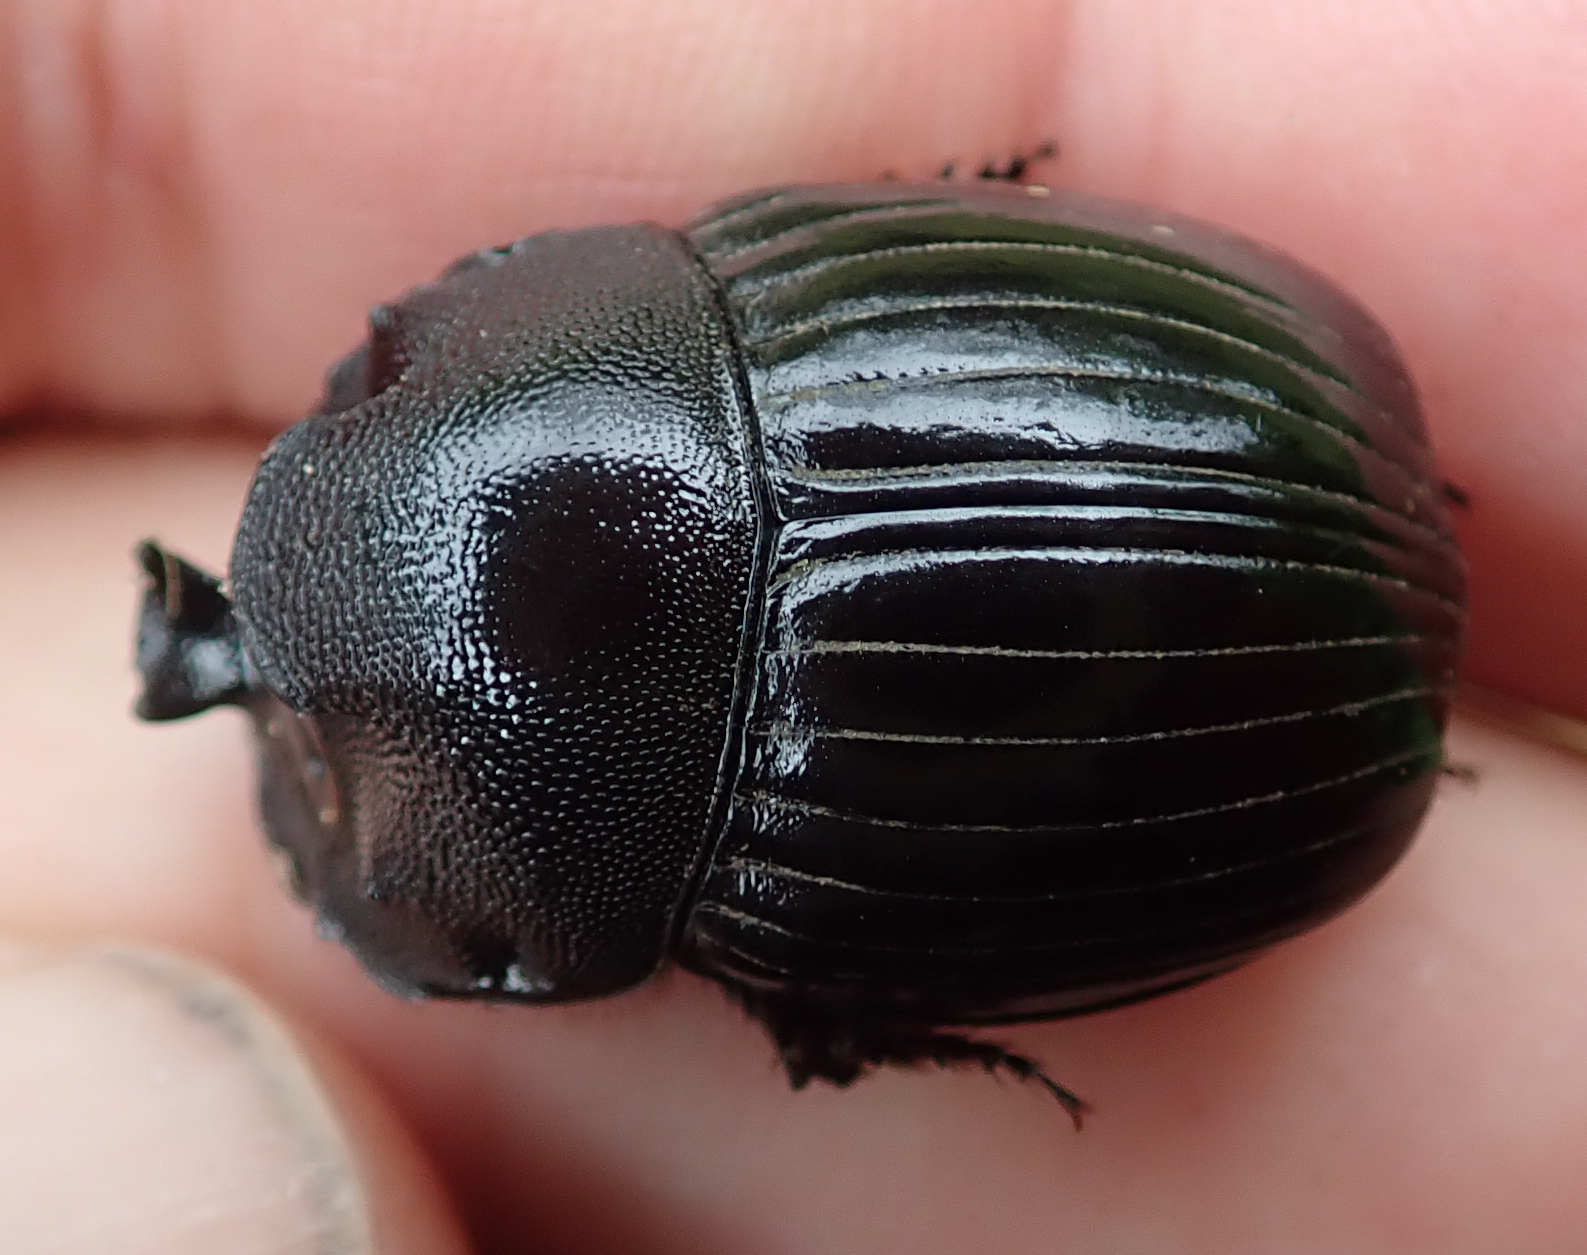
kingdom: Animalia
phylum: Arthropoda
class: Insecta
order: Coleoptera
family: Scarabaeidae
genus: Copris
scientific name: Copris elphenor
